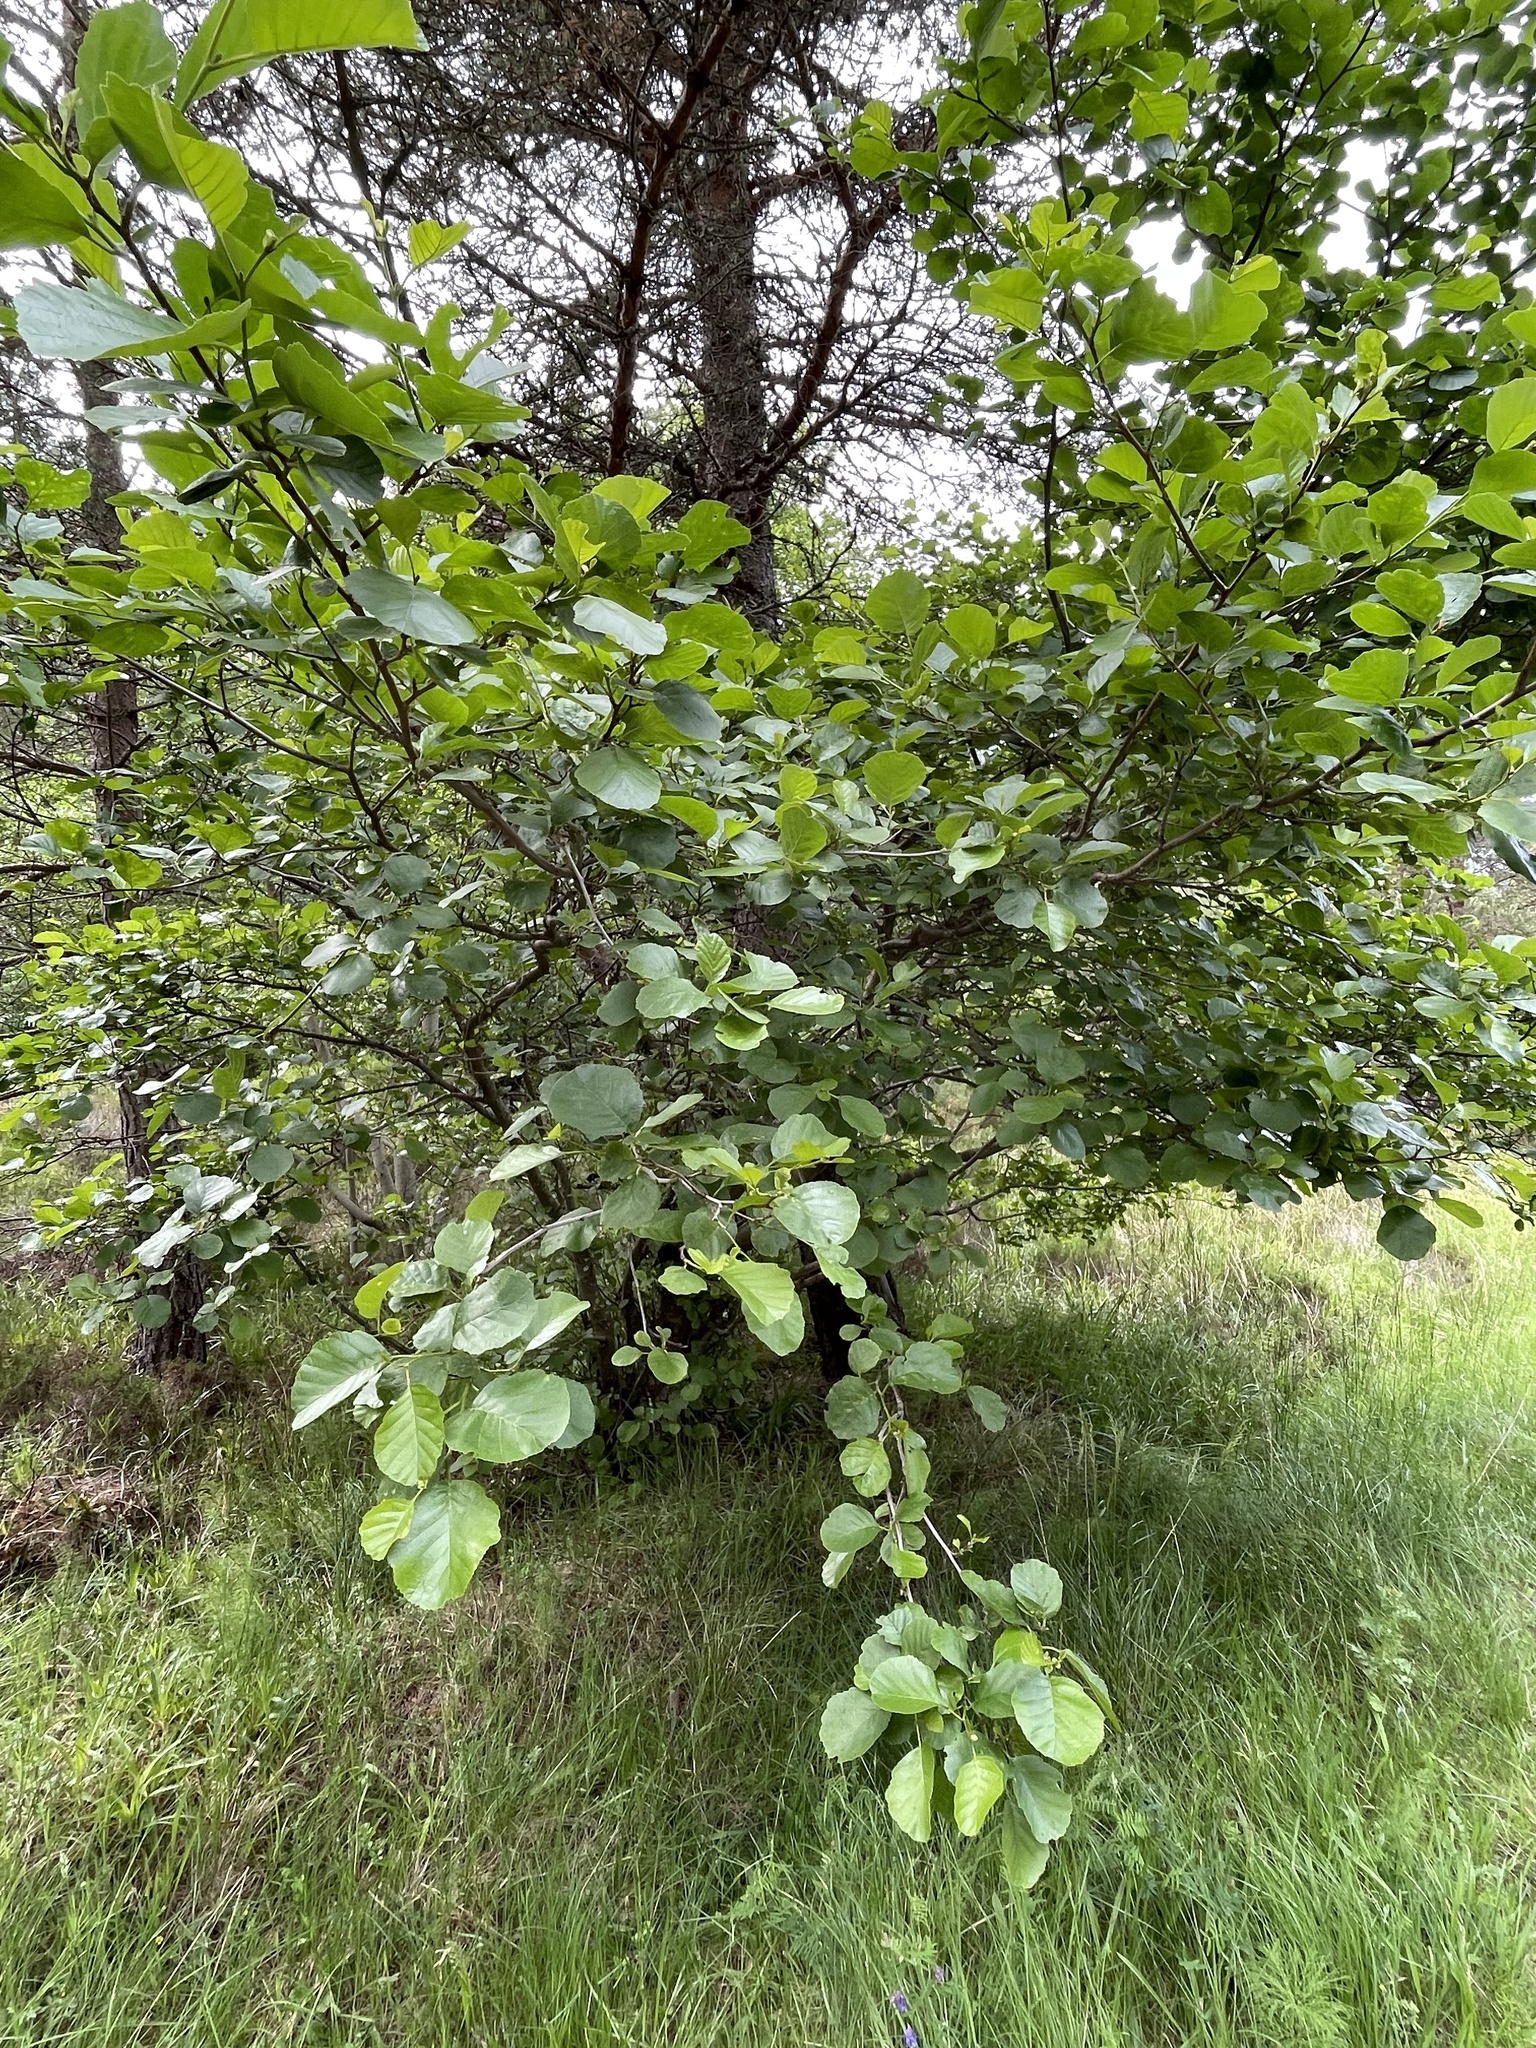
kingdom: Plantae
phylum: Tracheophyta
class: Magnoliopsida
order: Fagales
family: Betulaceae
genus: Alnus
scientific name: Alnus glutinosa
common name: Black alder
